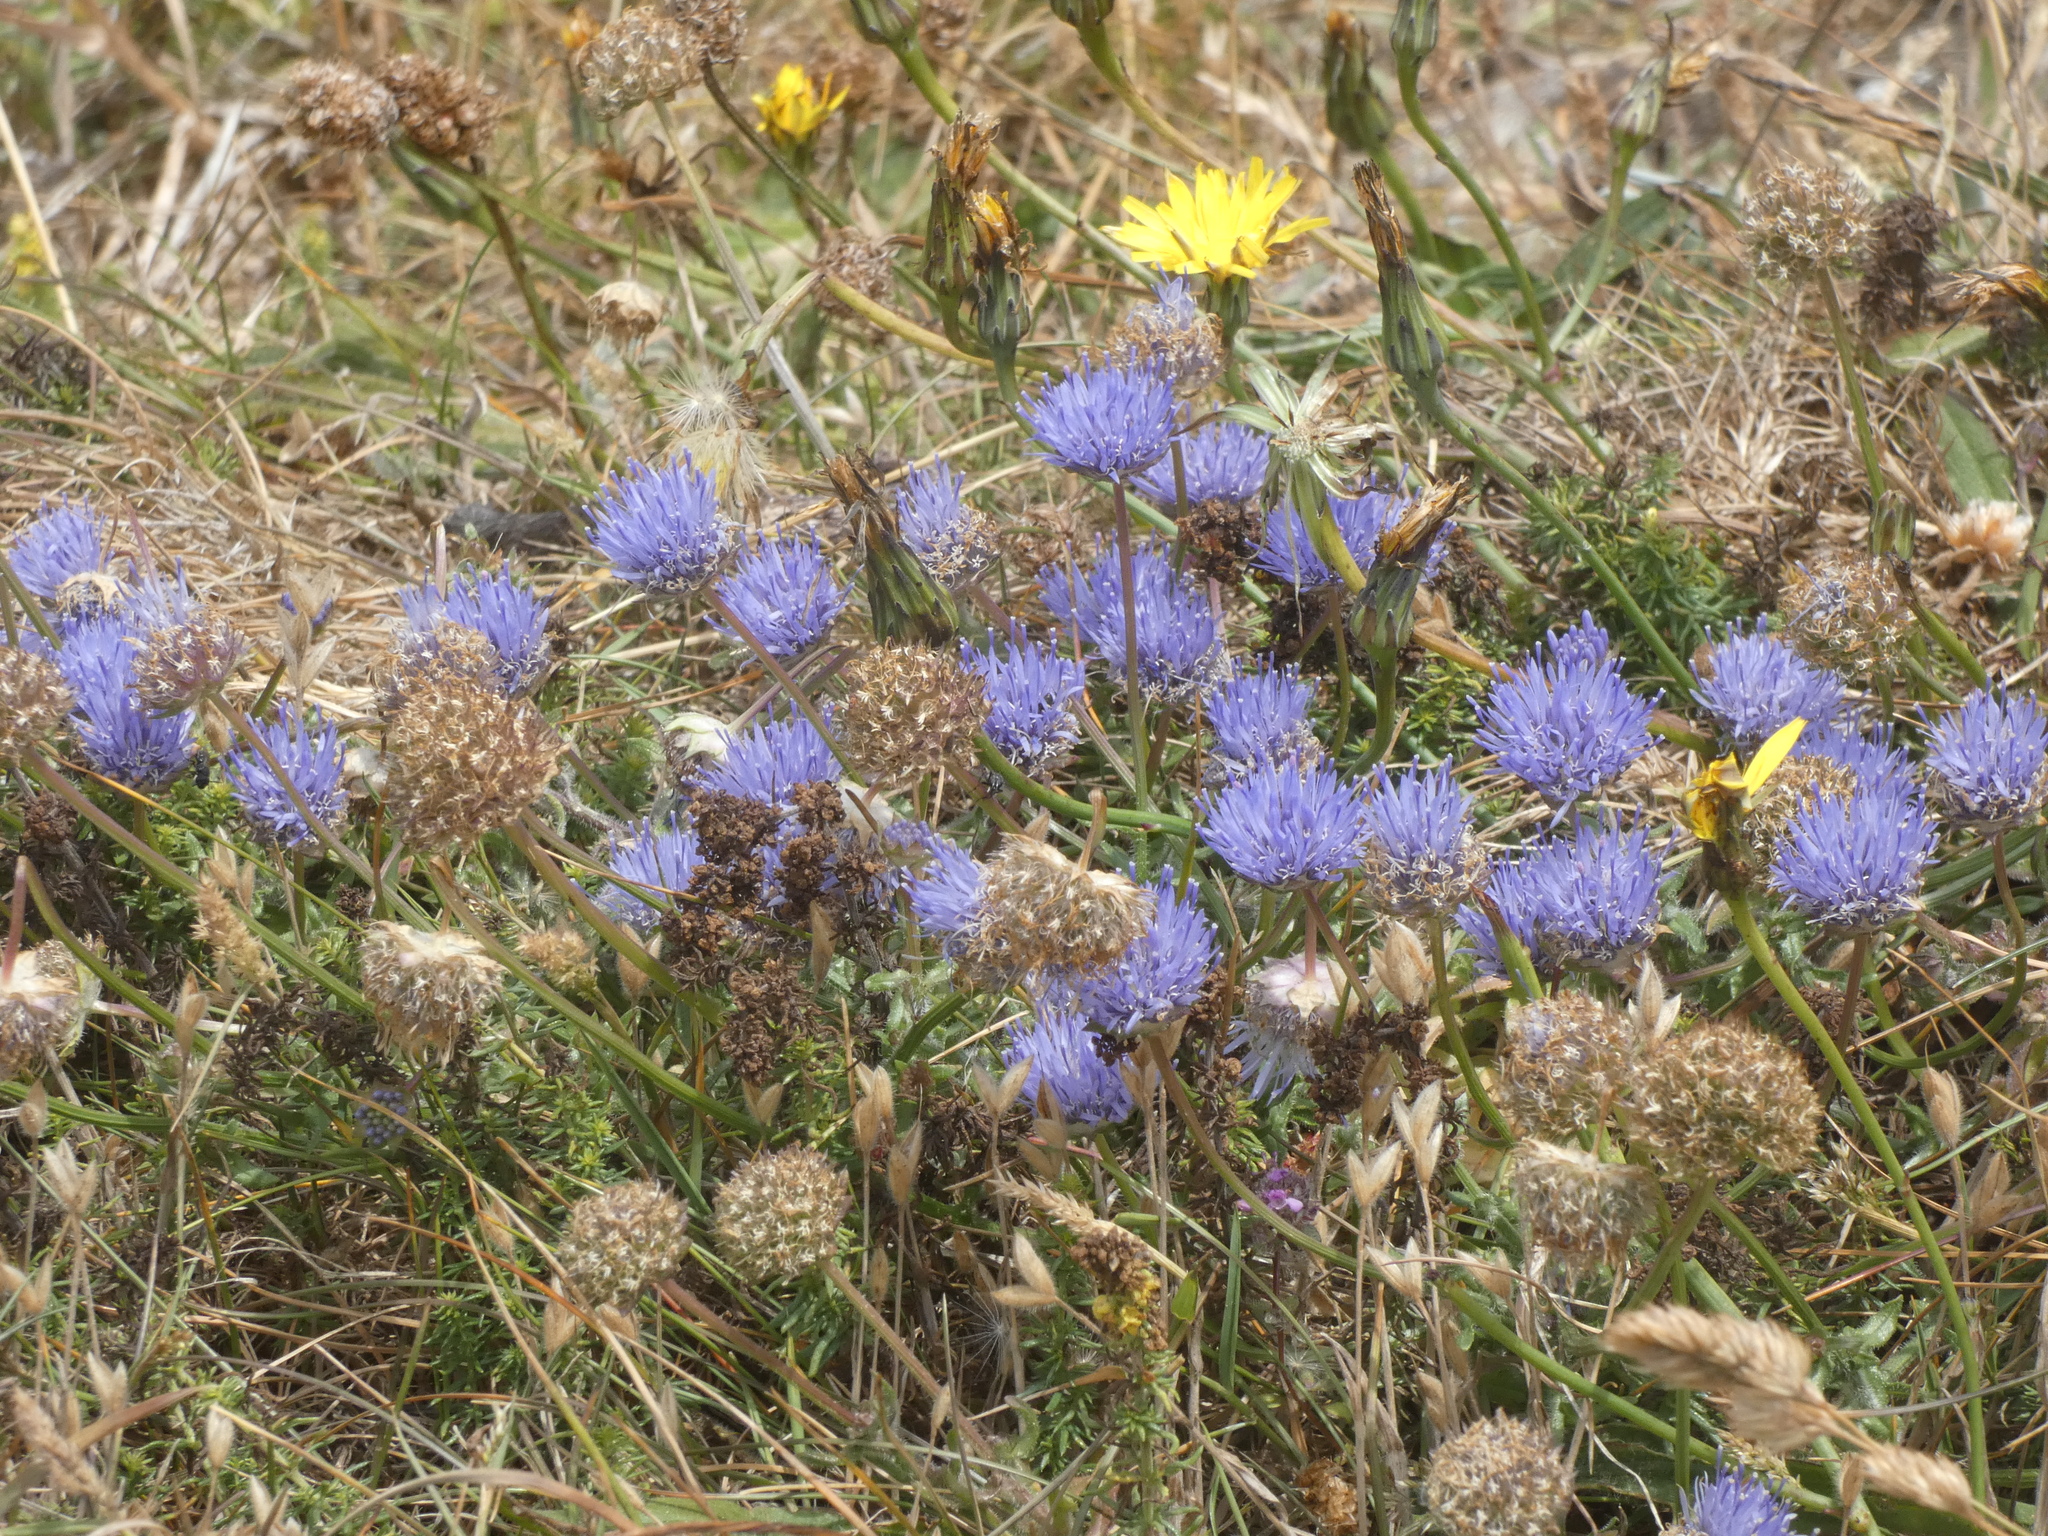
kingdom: Plantae
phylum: Tracheophyta
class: Magnoliopsida
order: Asterales
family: Campanulaceae
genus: Jasione
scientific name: Jasione montana
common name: Sheep's-bit
